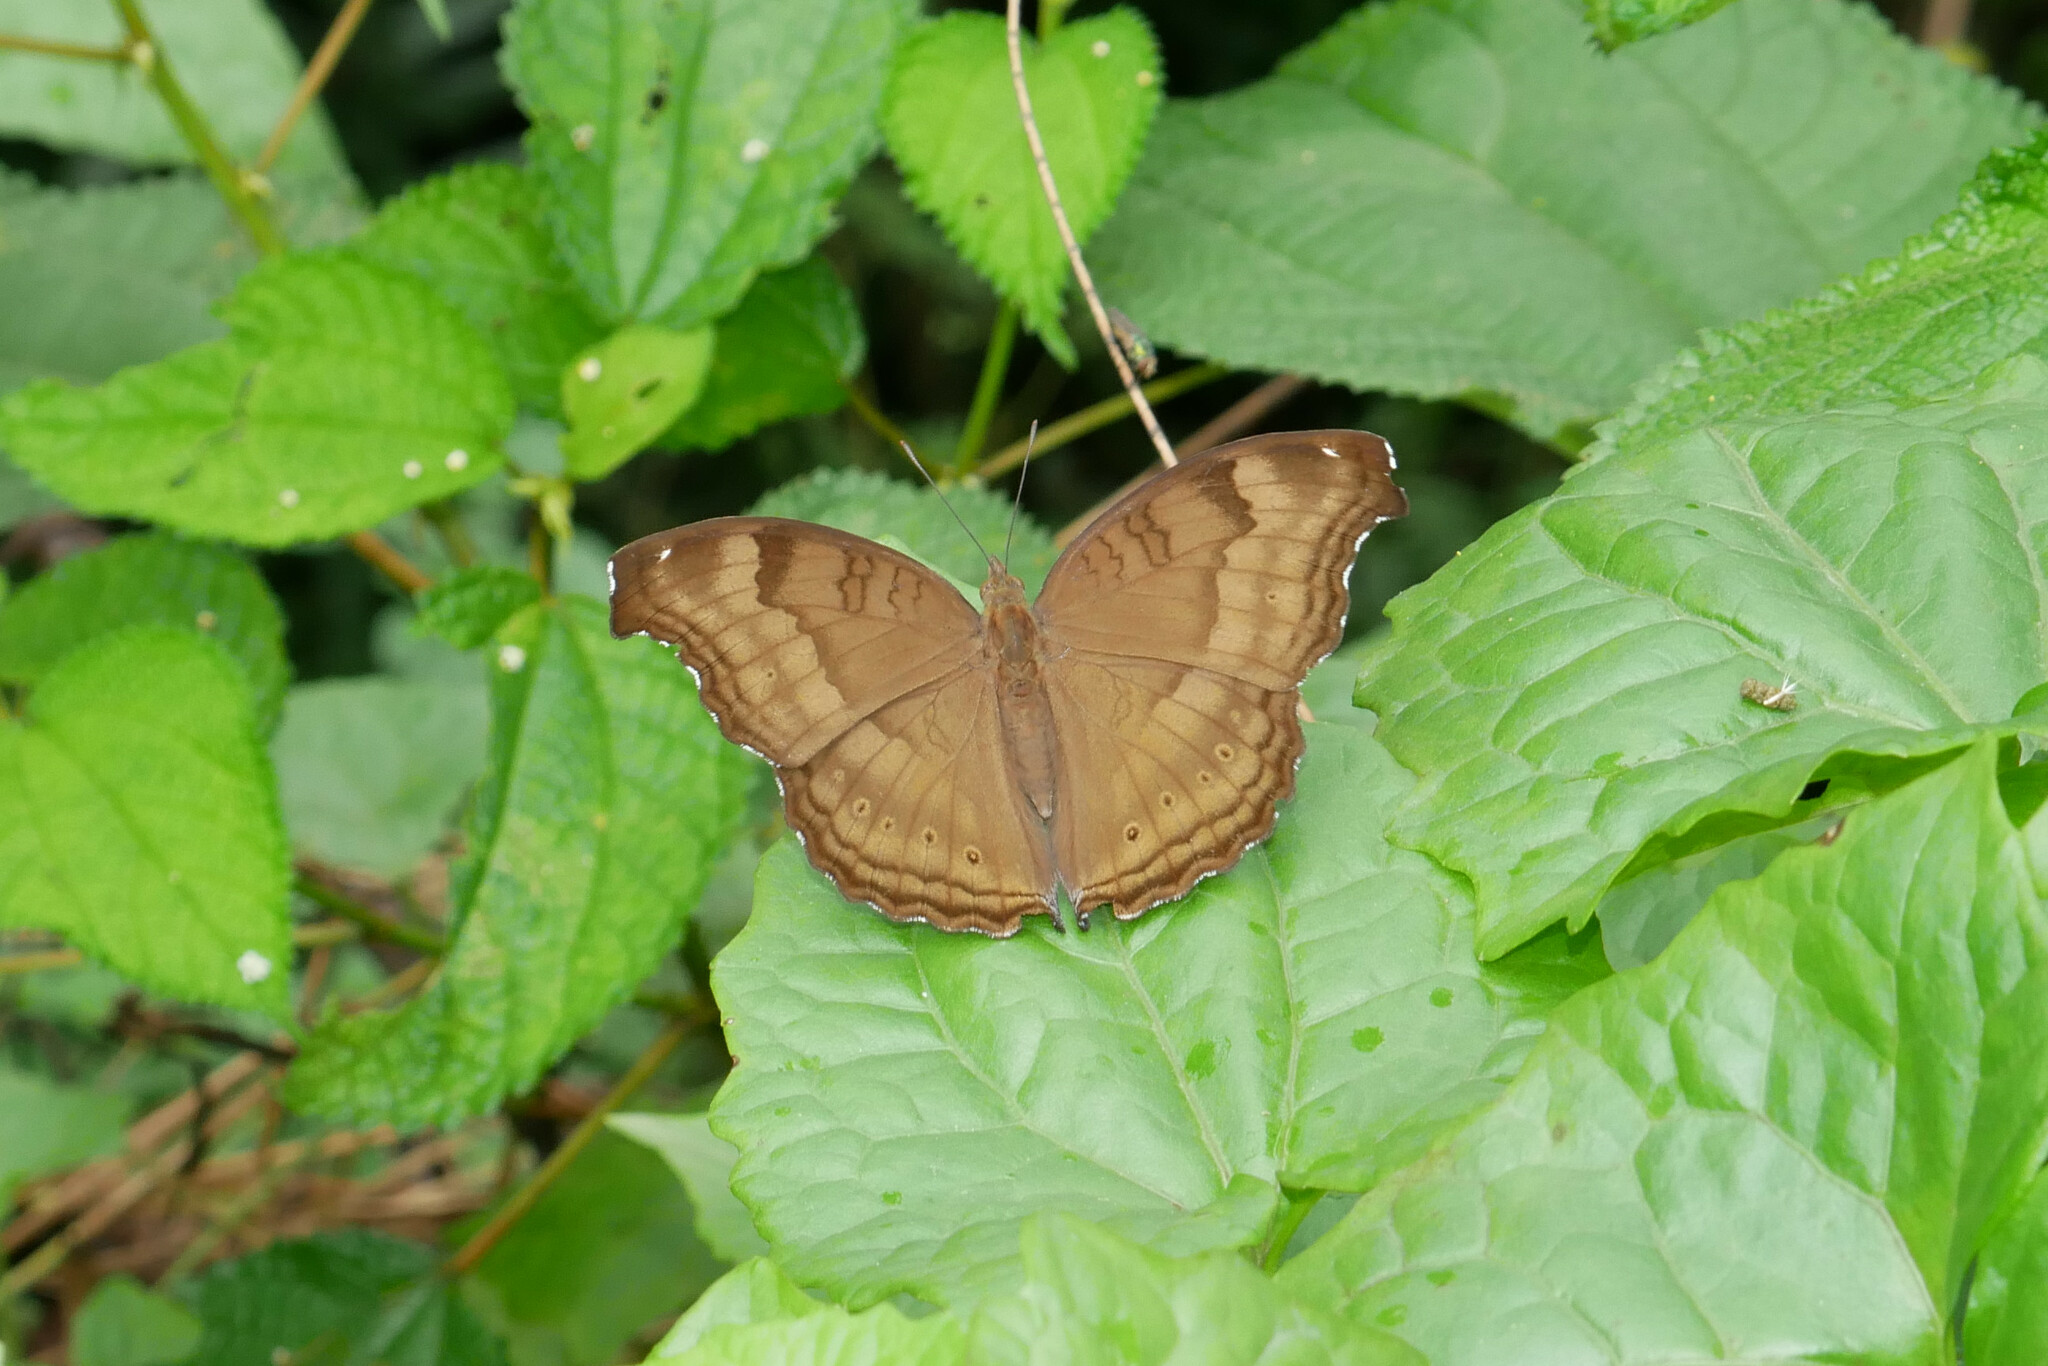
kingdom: Animalia
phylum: Arthropoda
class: Insecta
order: Lepidoptera
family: Nymphalidae
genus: Junonia
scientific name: Junonia iphita
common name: Chocolate pansy
